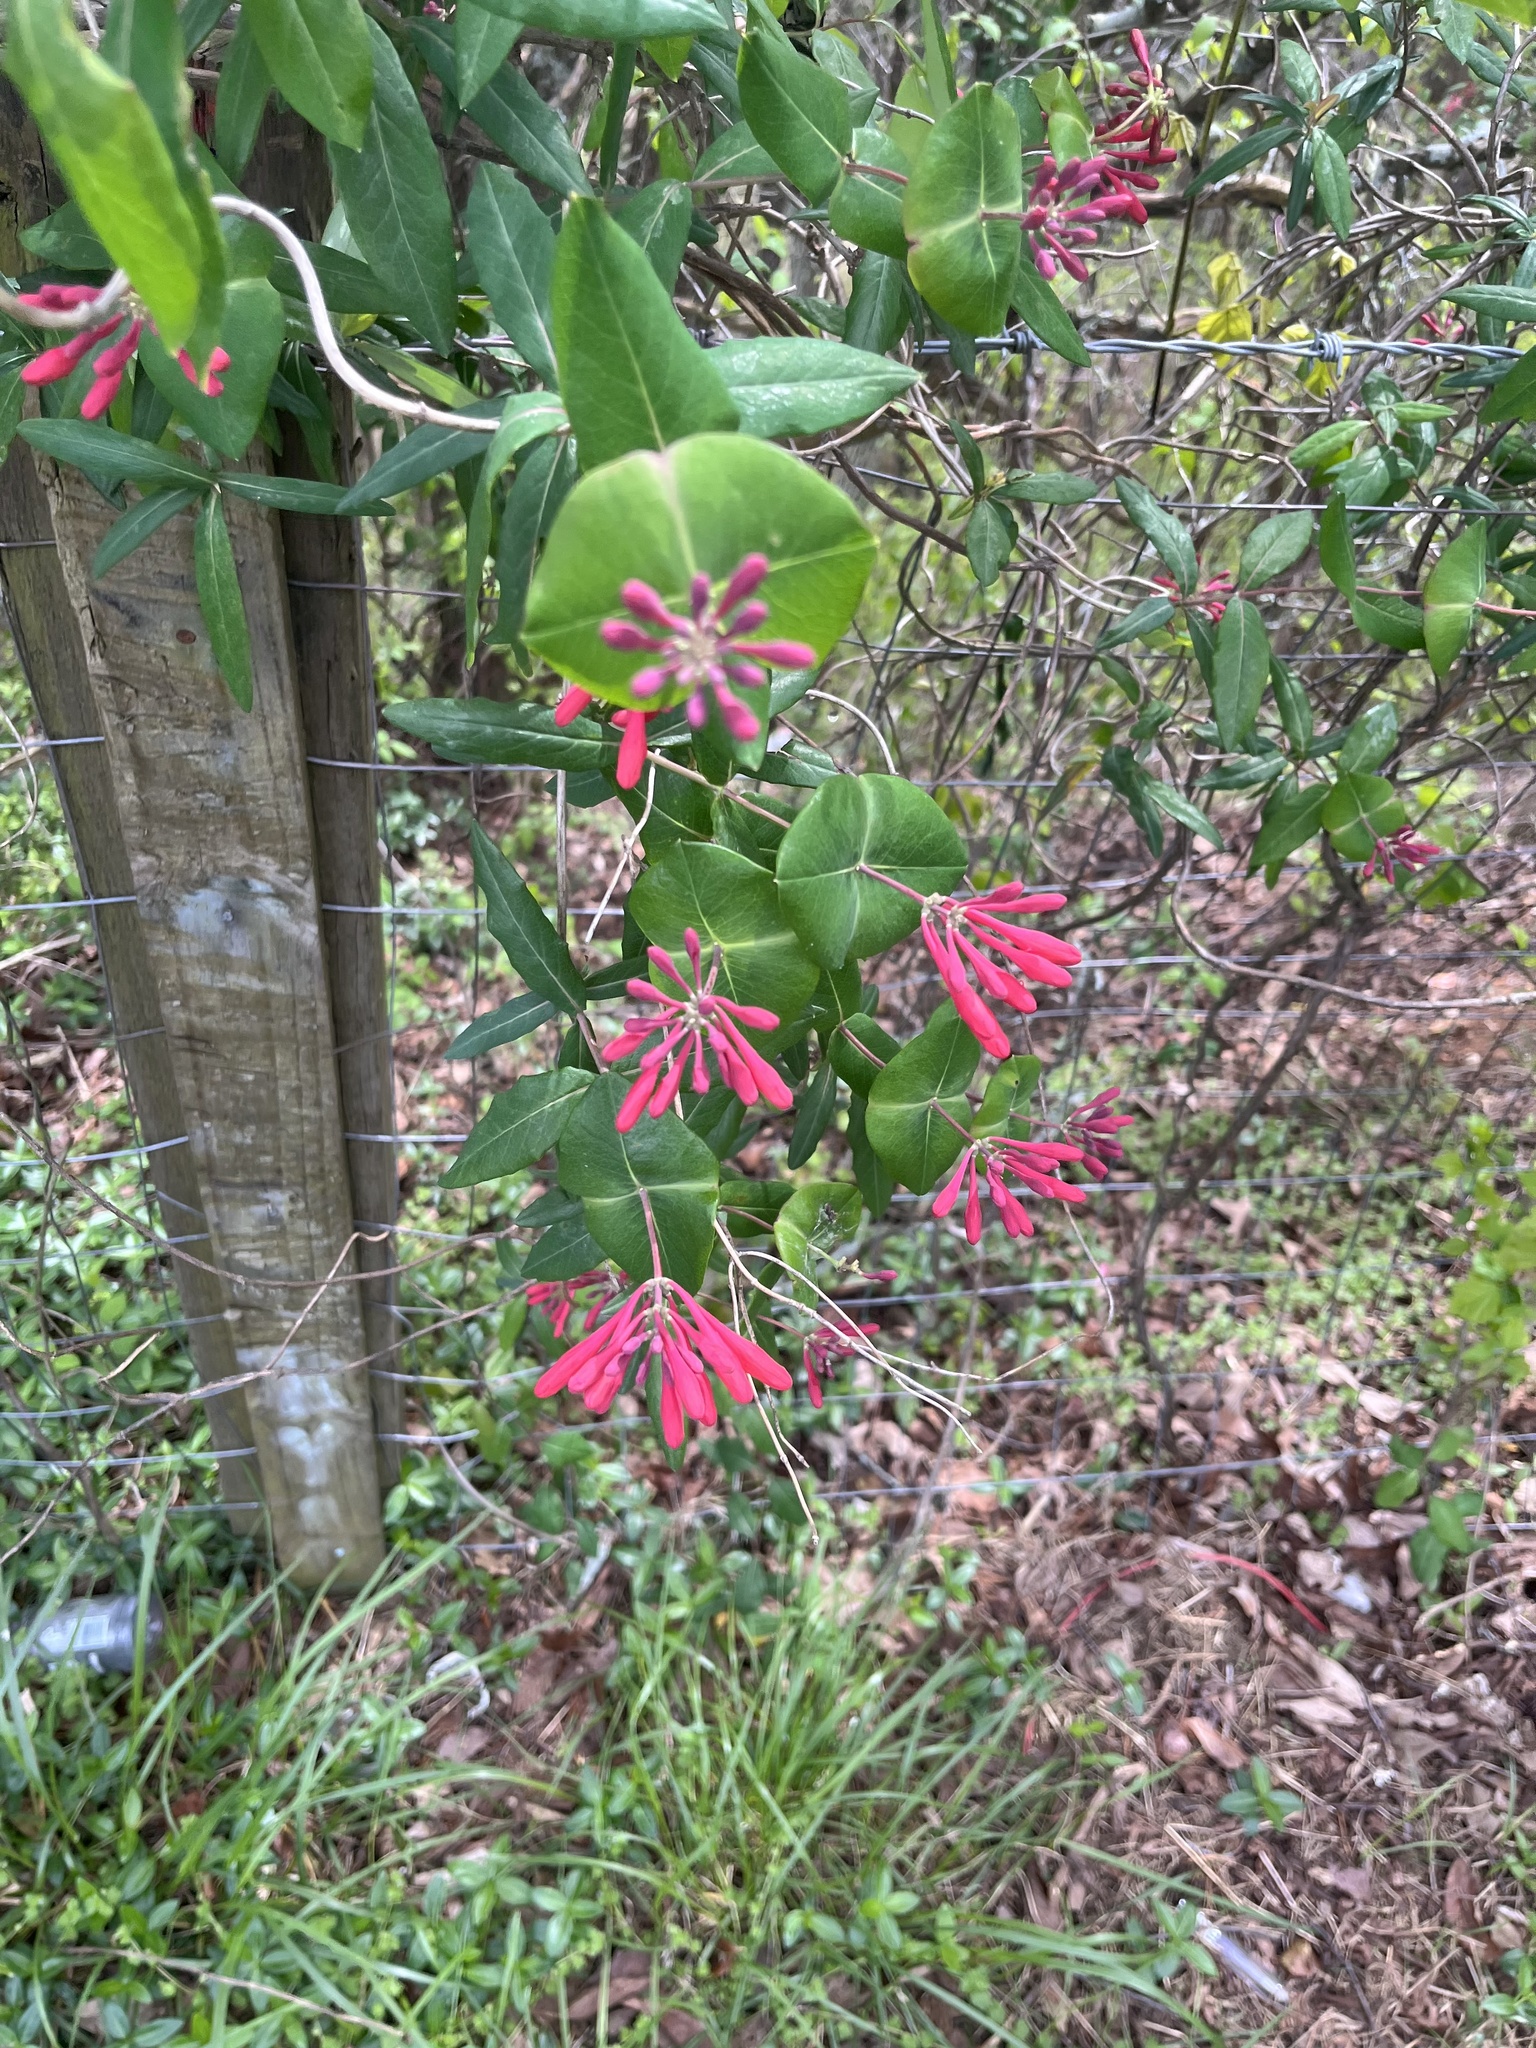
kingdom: Plantae
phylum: Tracheophyta
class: Magnoliopsida
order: Dipsacales
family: Caprifoliaceae
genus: Lonicera
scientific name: Lonicera sempervirens
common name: Coral honeysuckle
